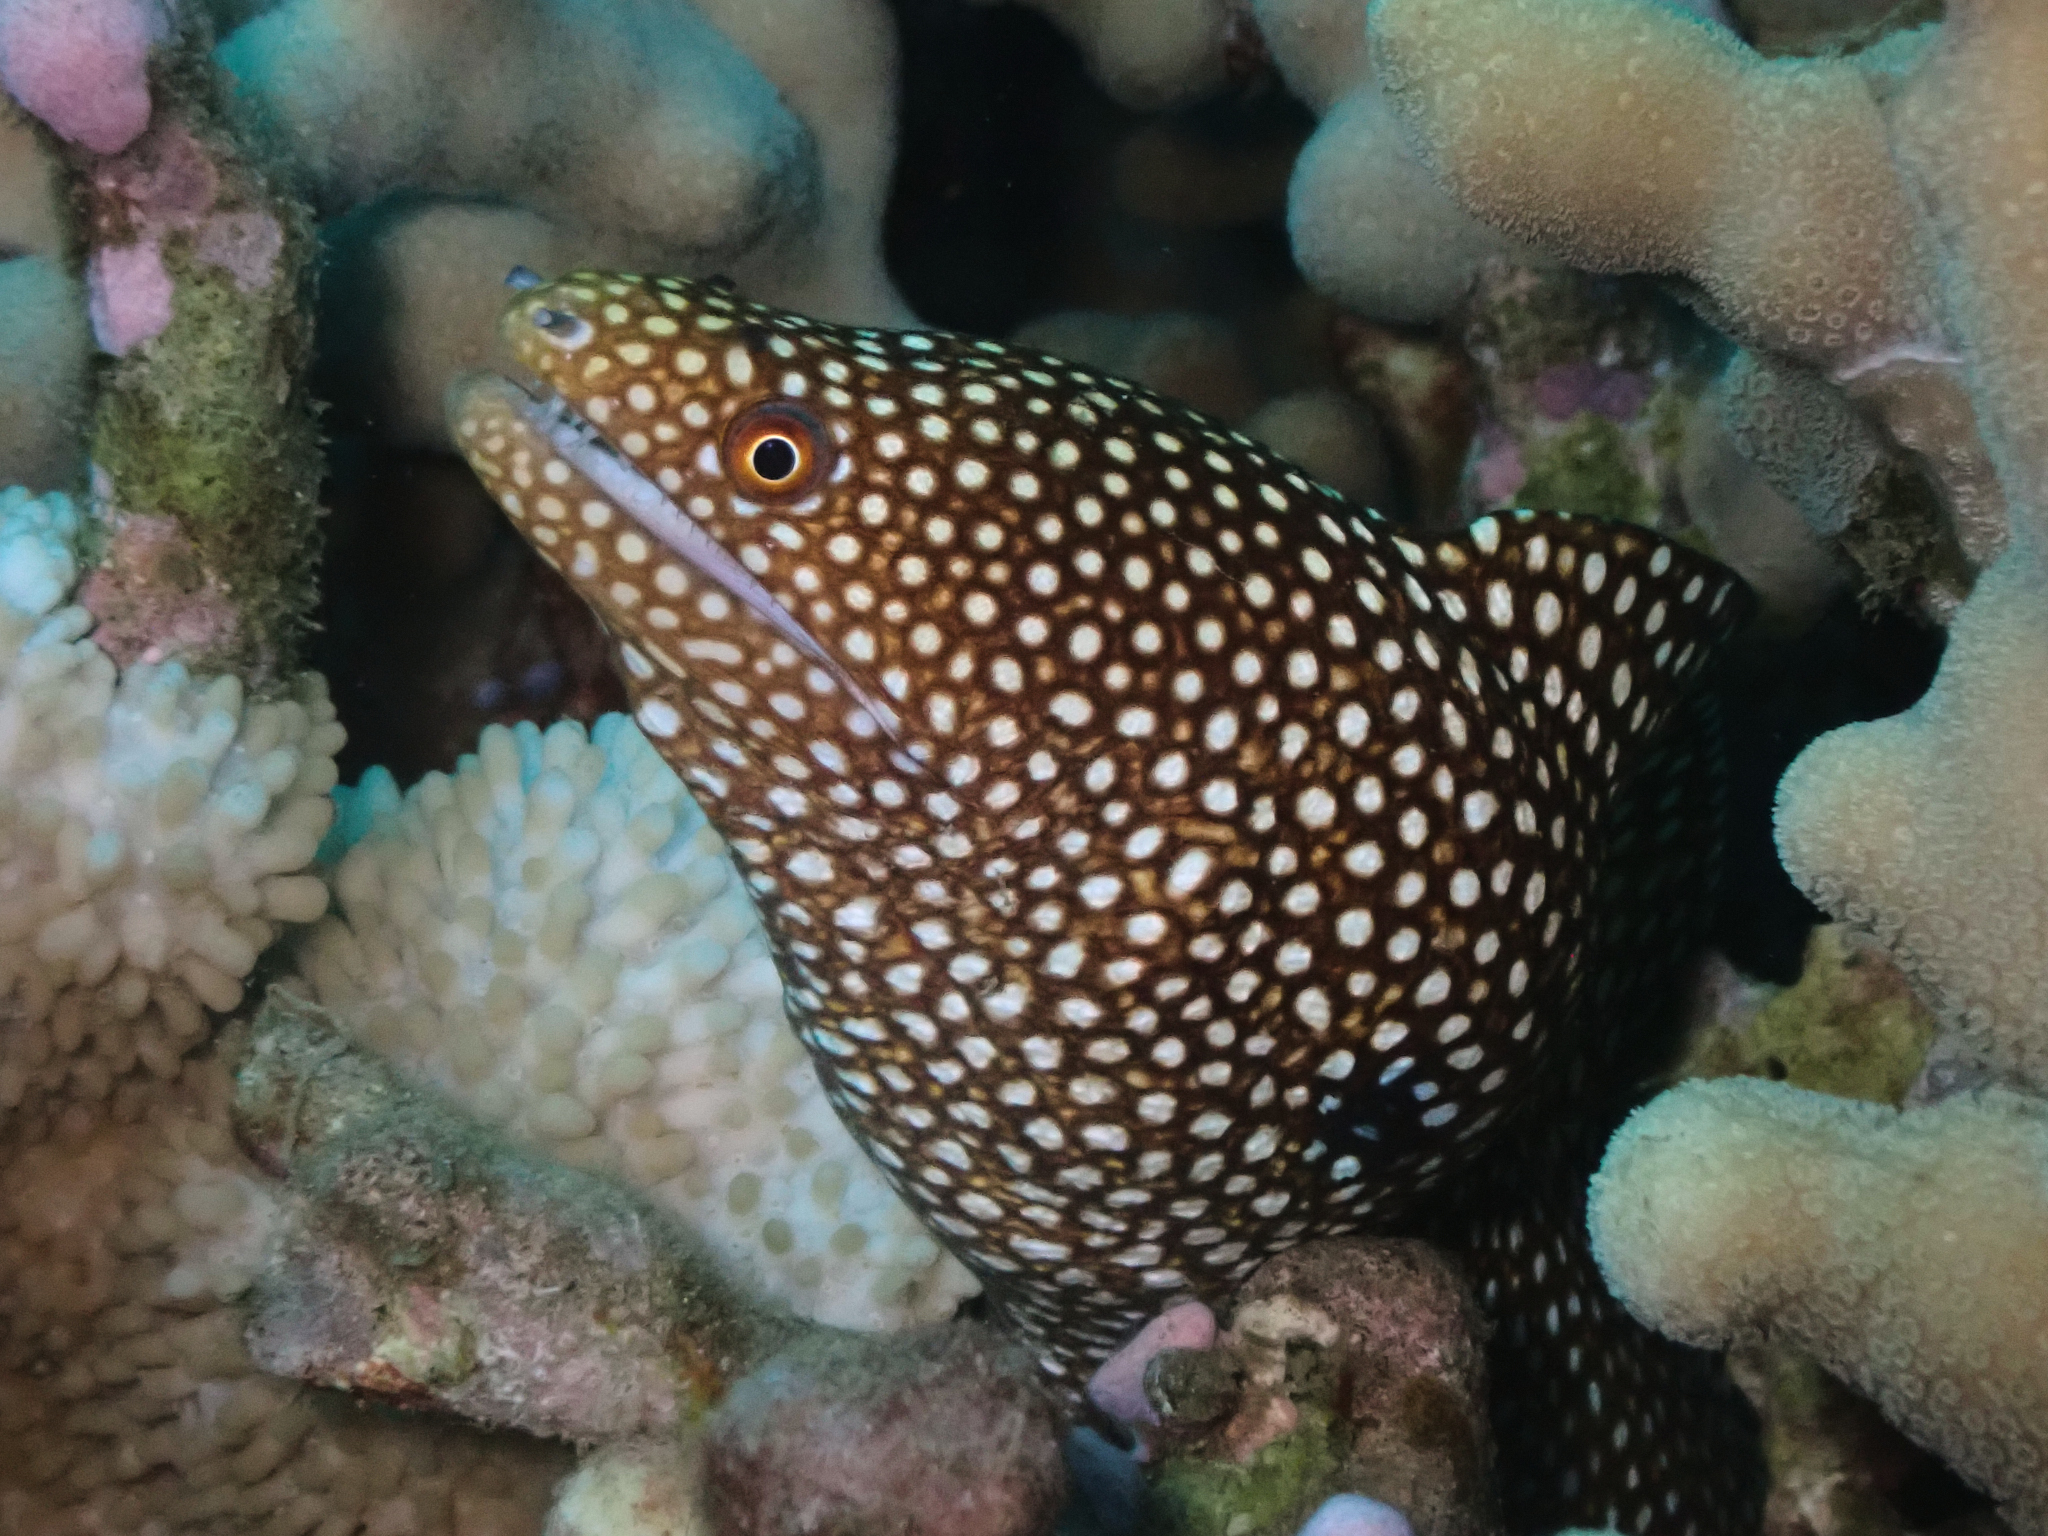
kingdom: Animalia
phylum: Chordata
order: Anguilliformes
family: Muraenidae
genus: Gymnothorax
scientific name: Gymnothorax meleagris
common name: Guineafowl moray
